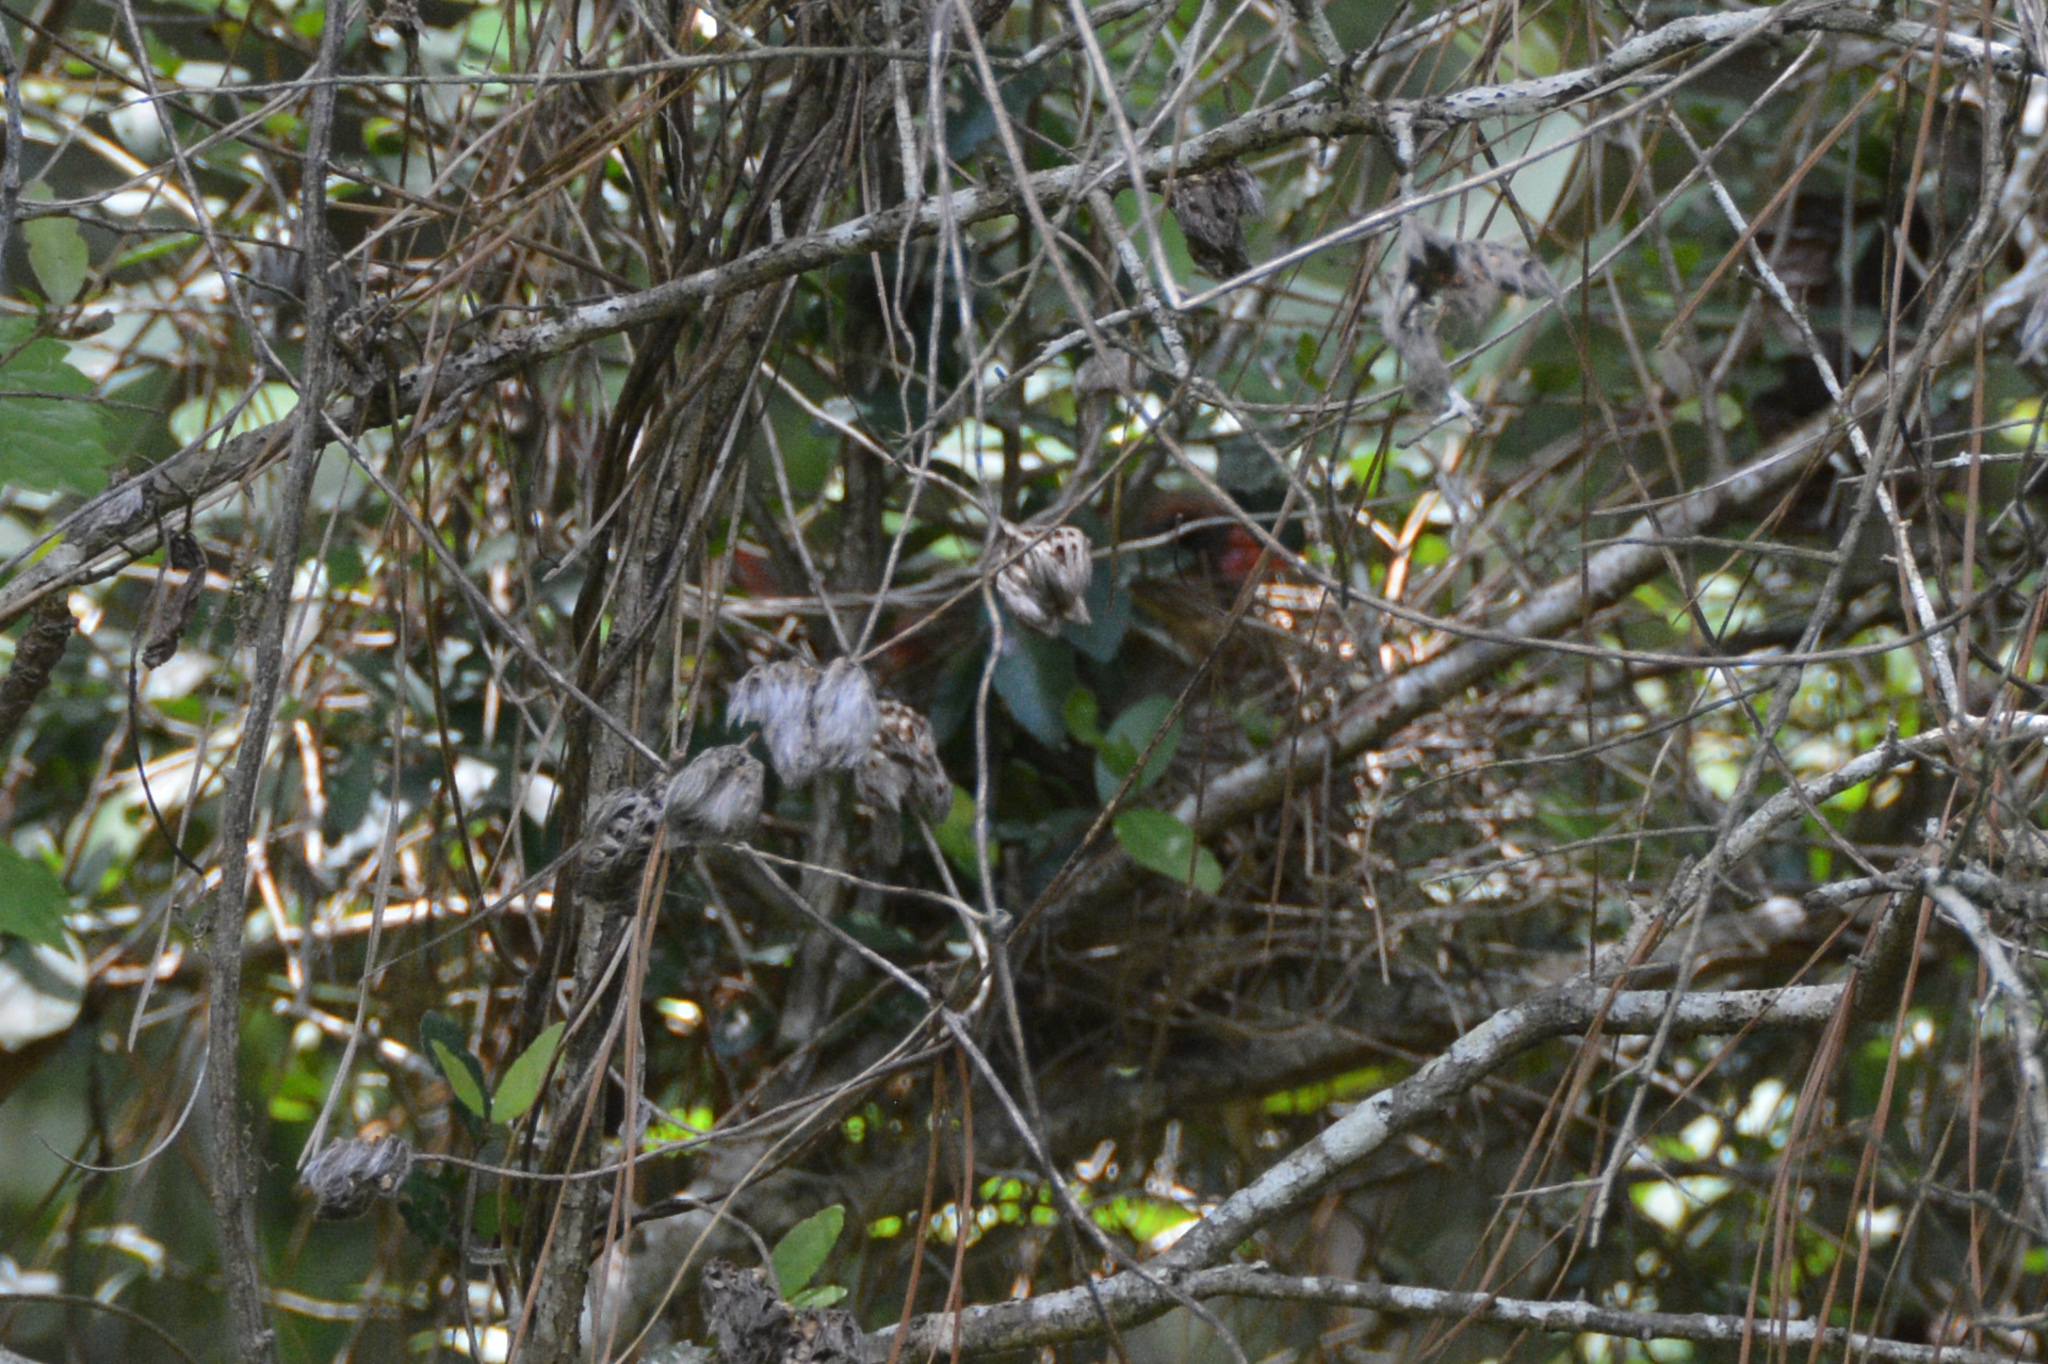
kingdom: Animalia
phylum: Chordata
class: Aves
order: Passeriformes
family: Cardinalidae
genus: Cardinalis
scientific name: Cardinalis cardinalis
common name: Northern cardinal
